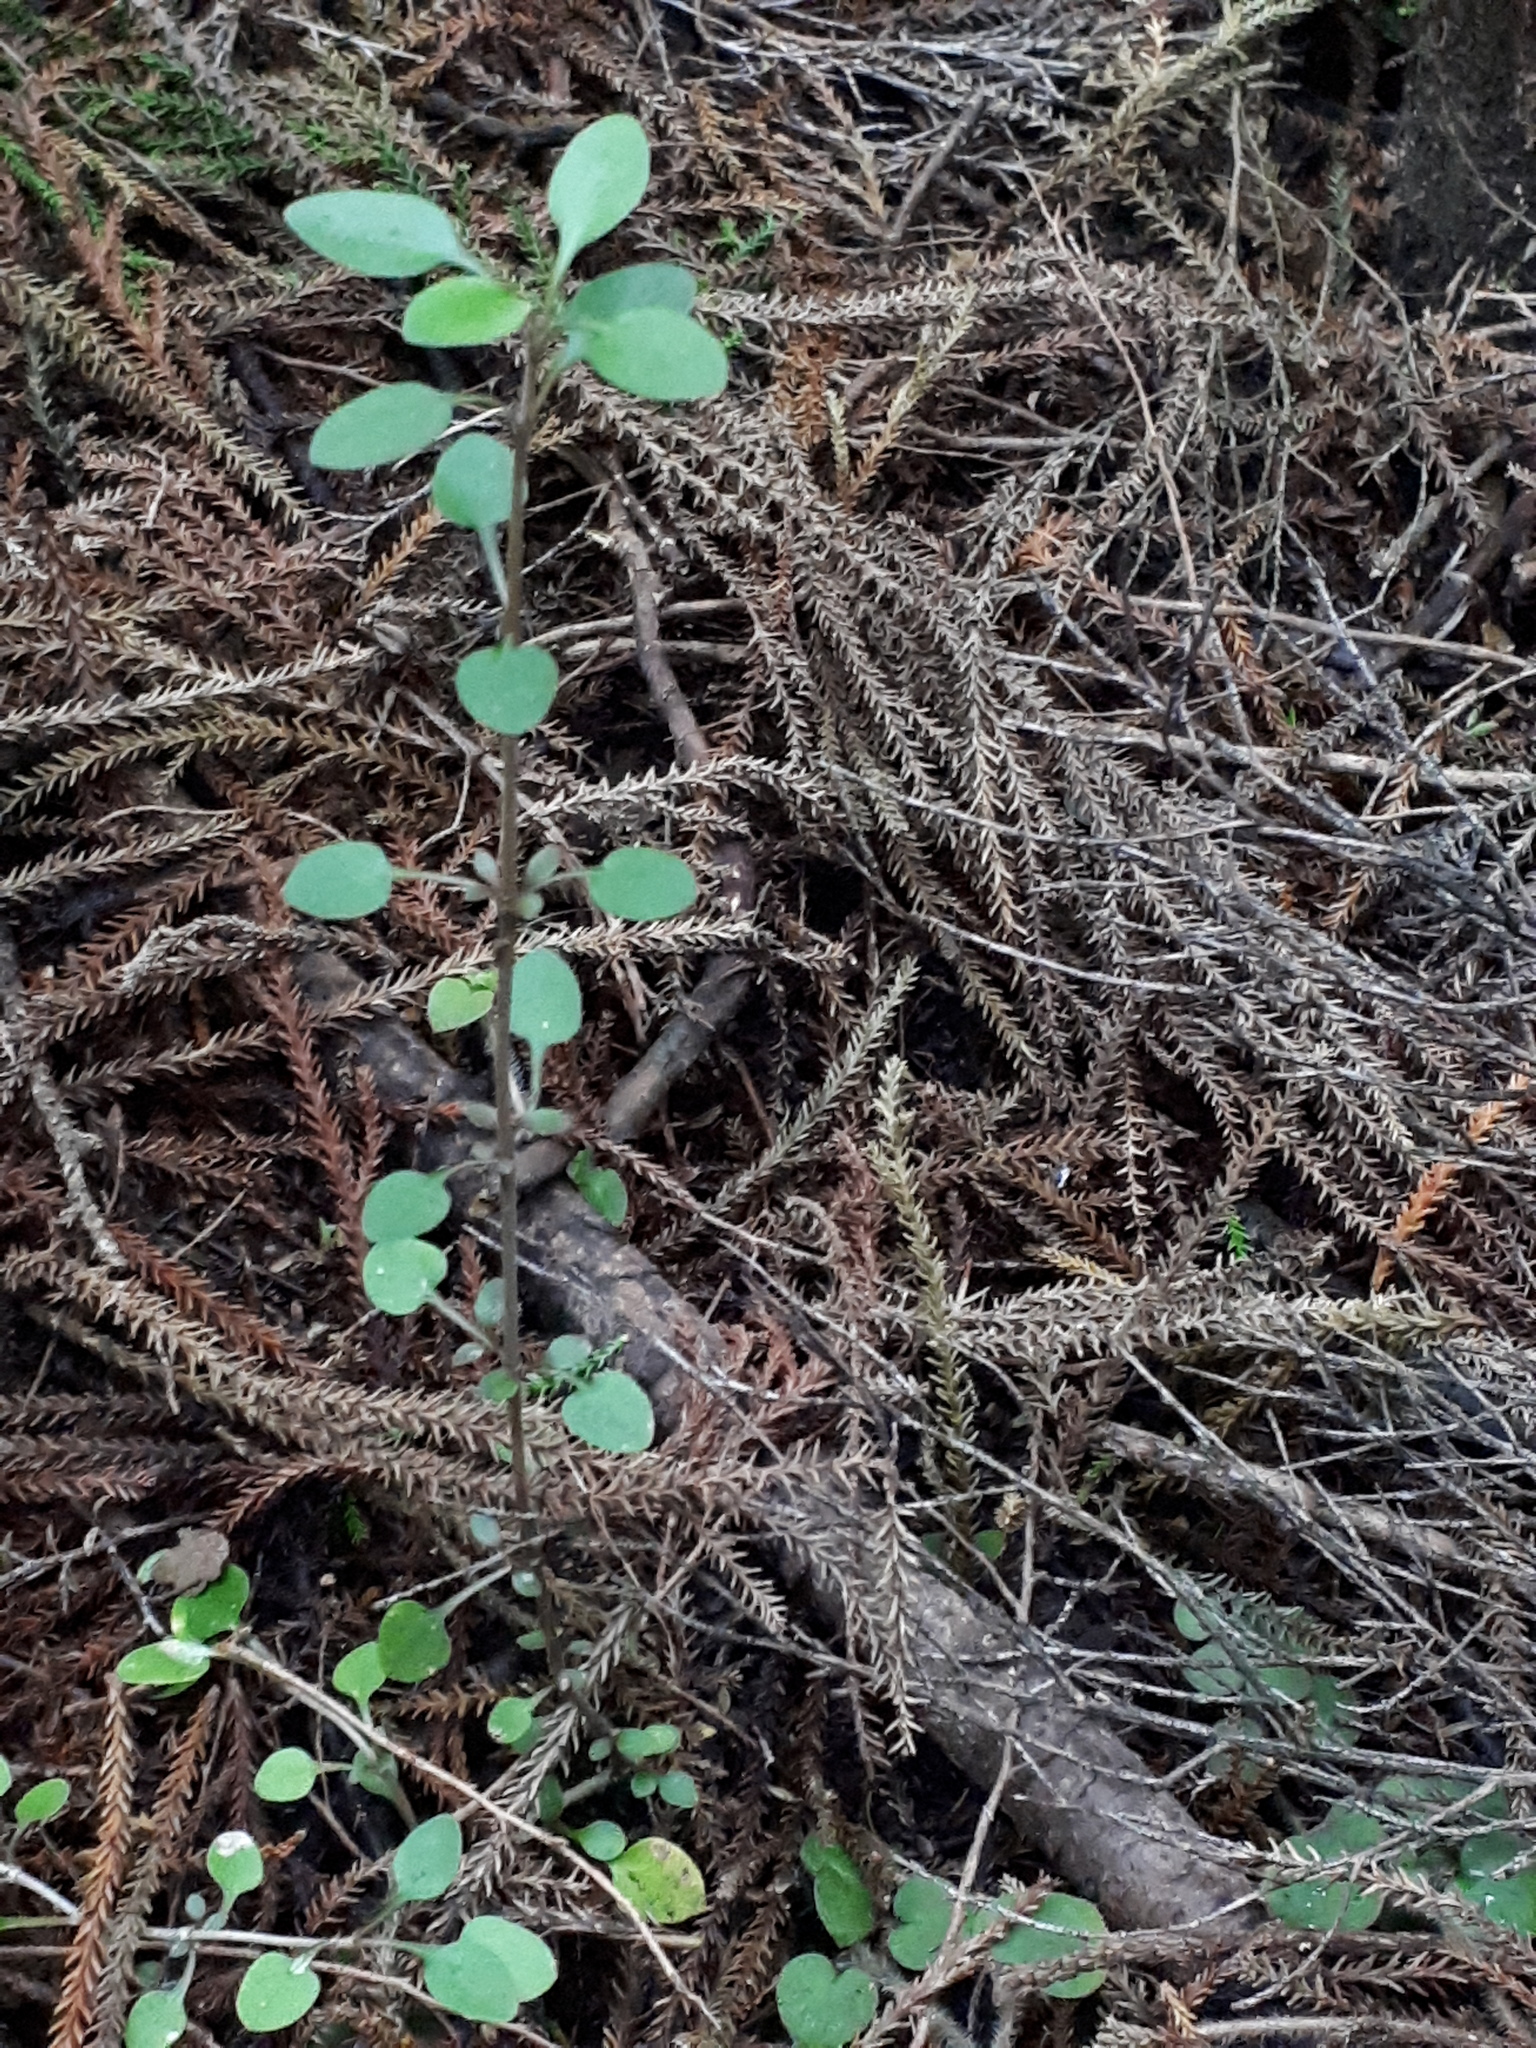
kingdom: Plantae
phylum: Tracheophyta
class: Magnoliopsida
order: Gentianales
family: Rubiaceae
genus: Coprosma
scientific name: Coprosma propinqua
